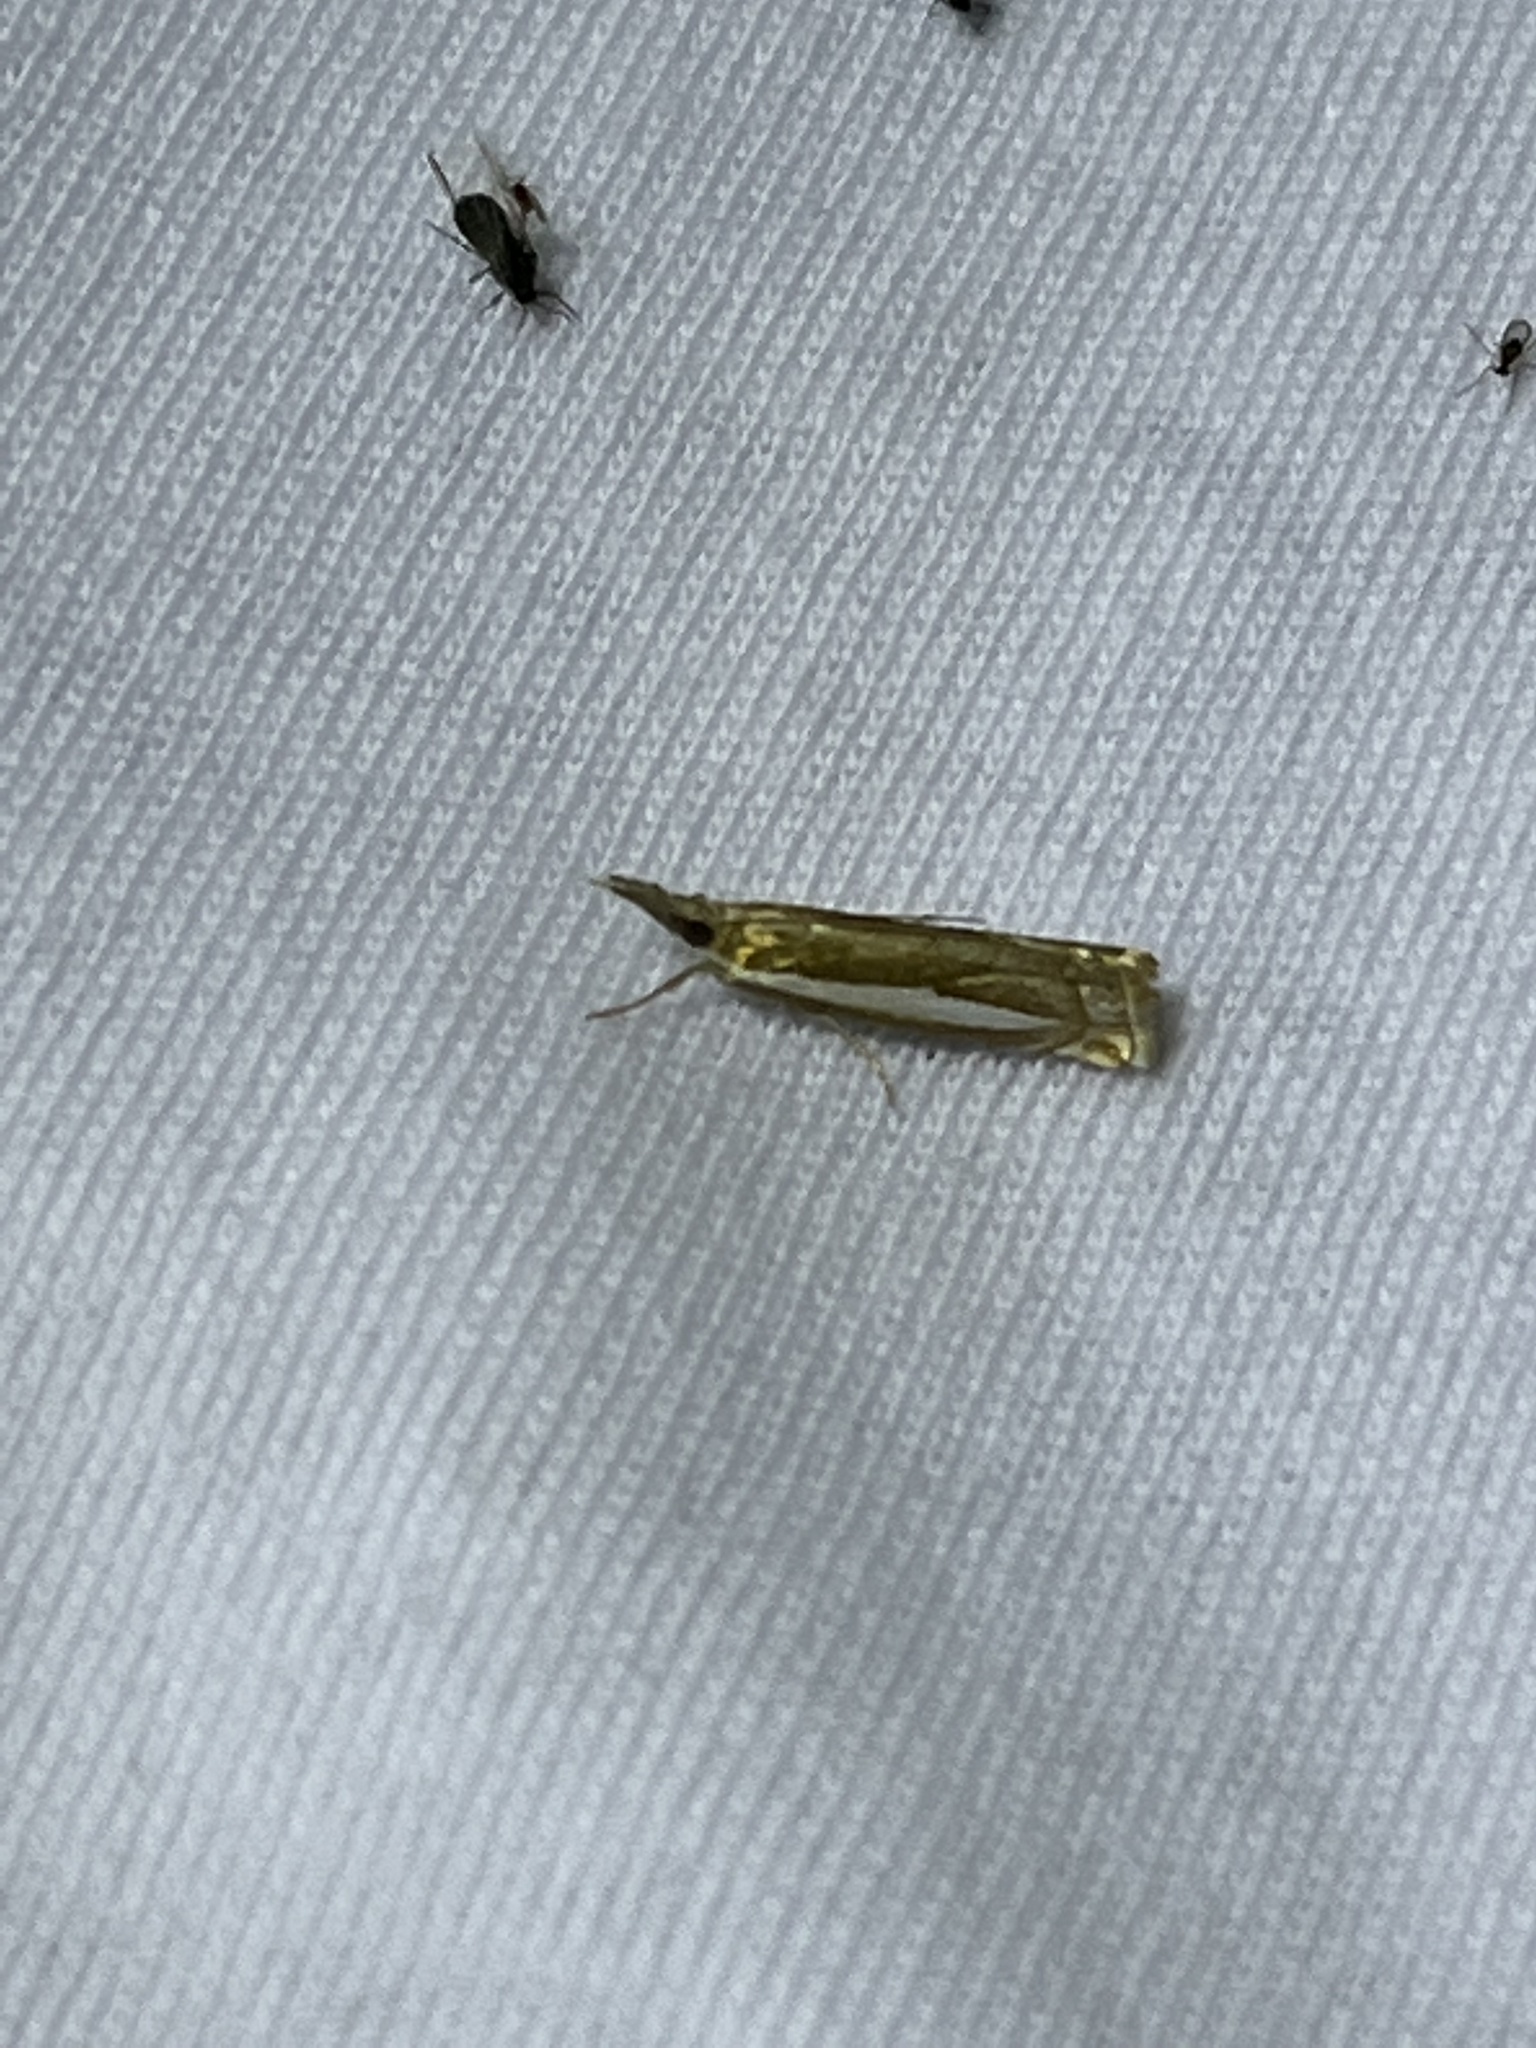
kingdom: Animalia
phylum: Arthropoda
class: Insecta
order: Lepidoptera
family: Crambidae
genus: Crambus
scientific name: Crambus praefectellus
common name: Common grass-veneer
